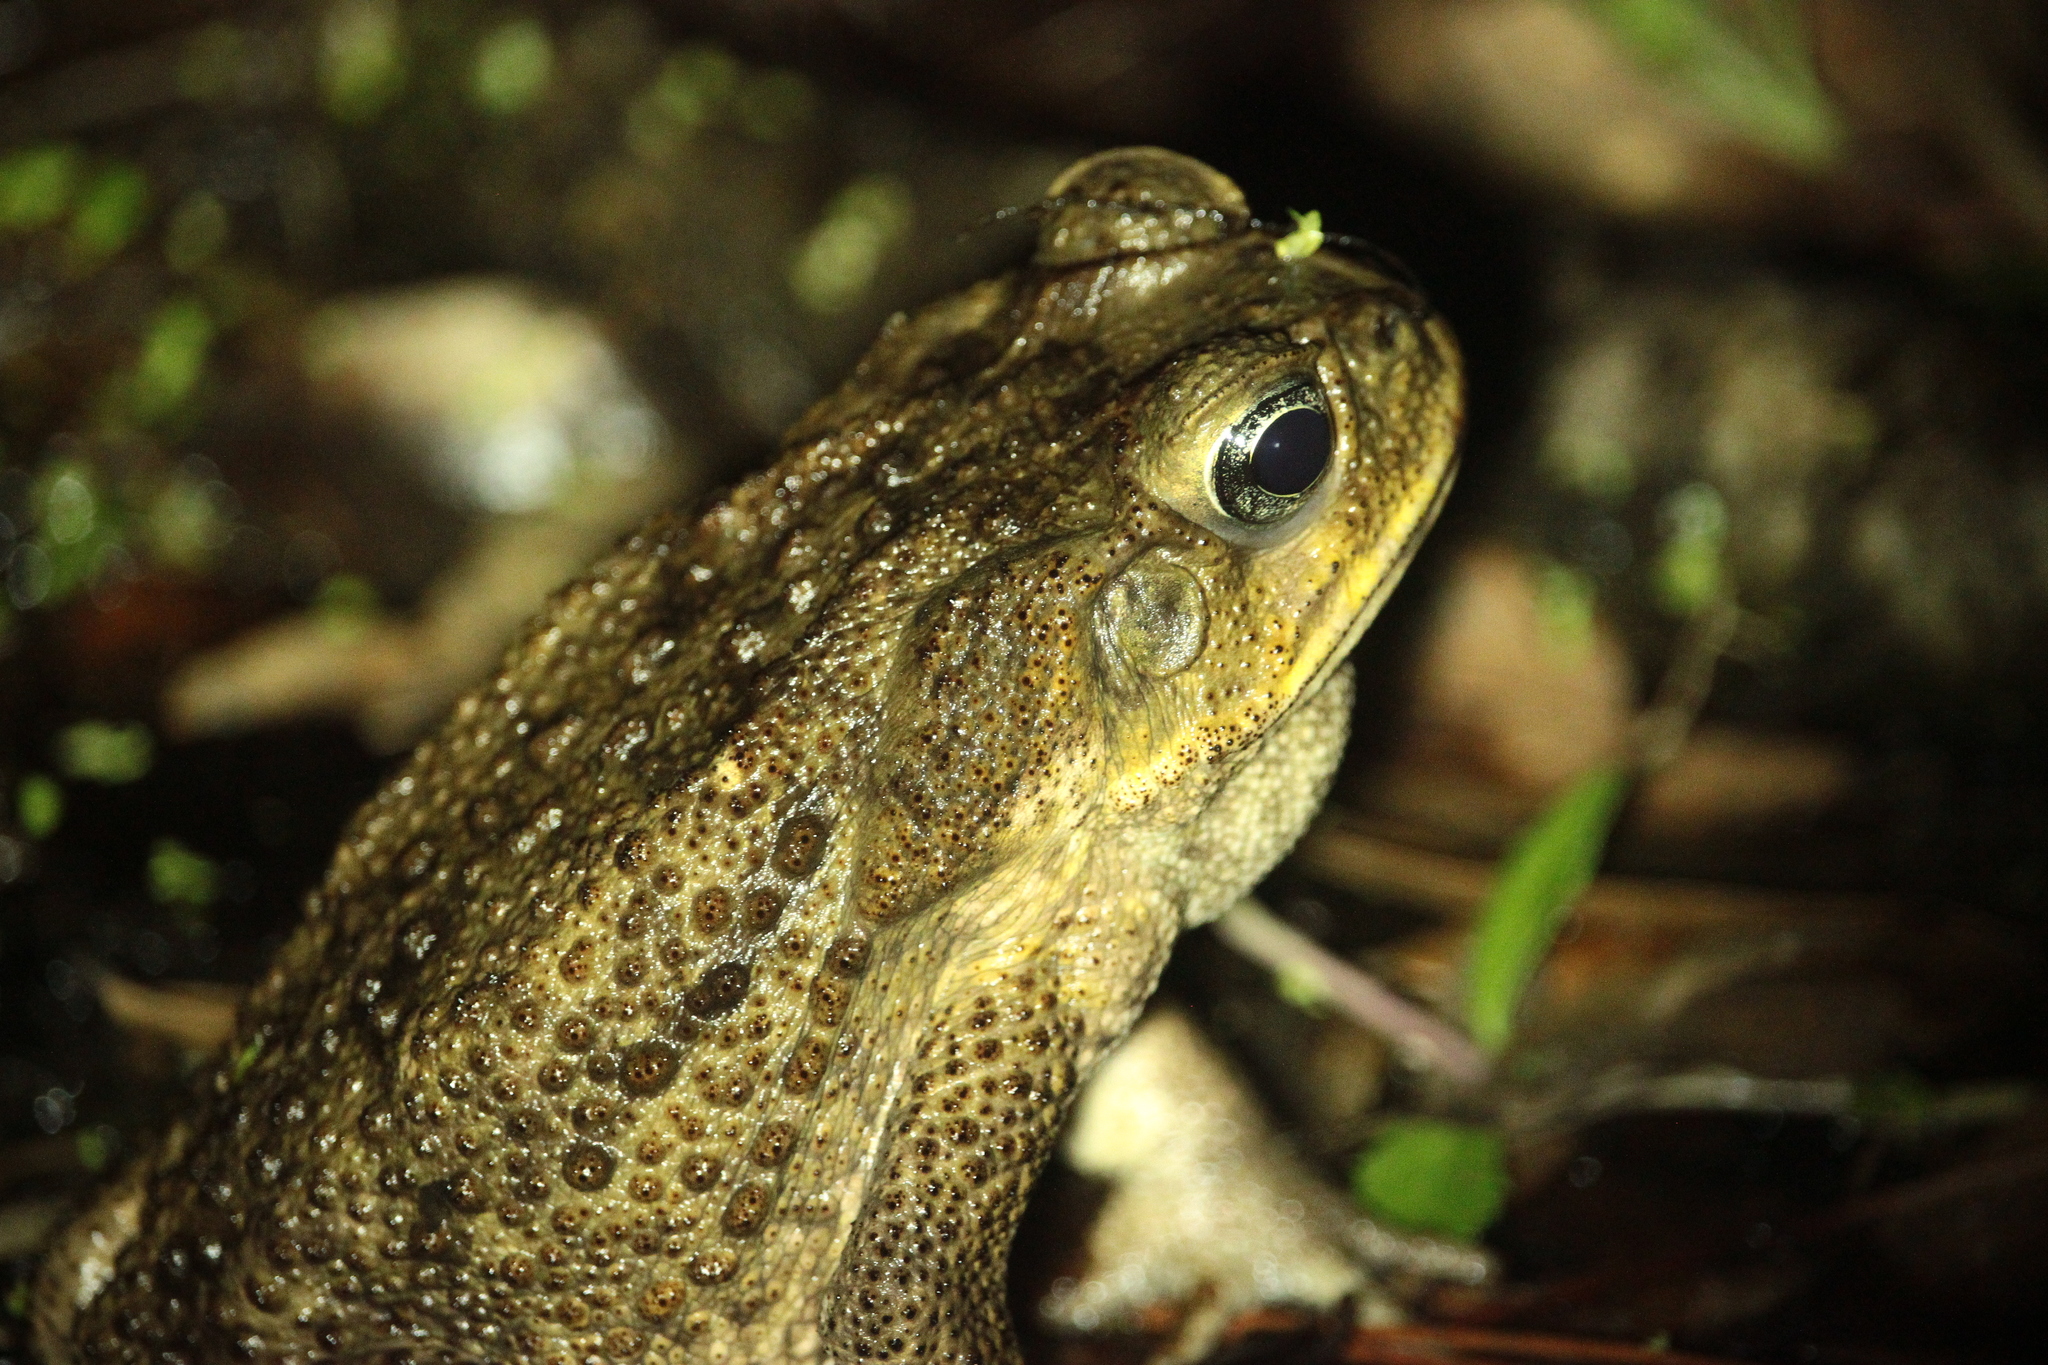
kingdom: Animalia
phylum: Chordata
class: Amphibia
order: Anura
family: Bufonidae
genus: Rhinella
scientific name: Rhinella marina
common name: Cane toad
